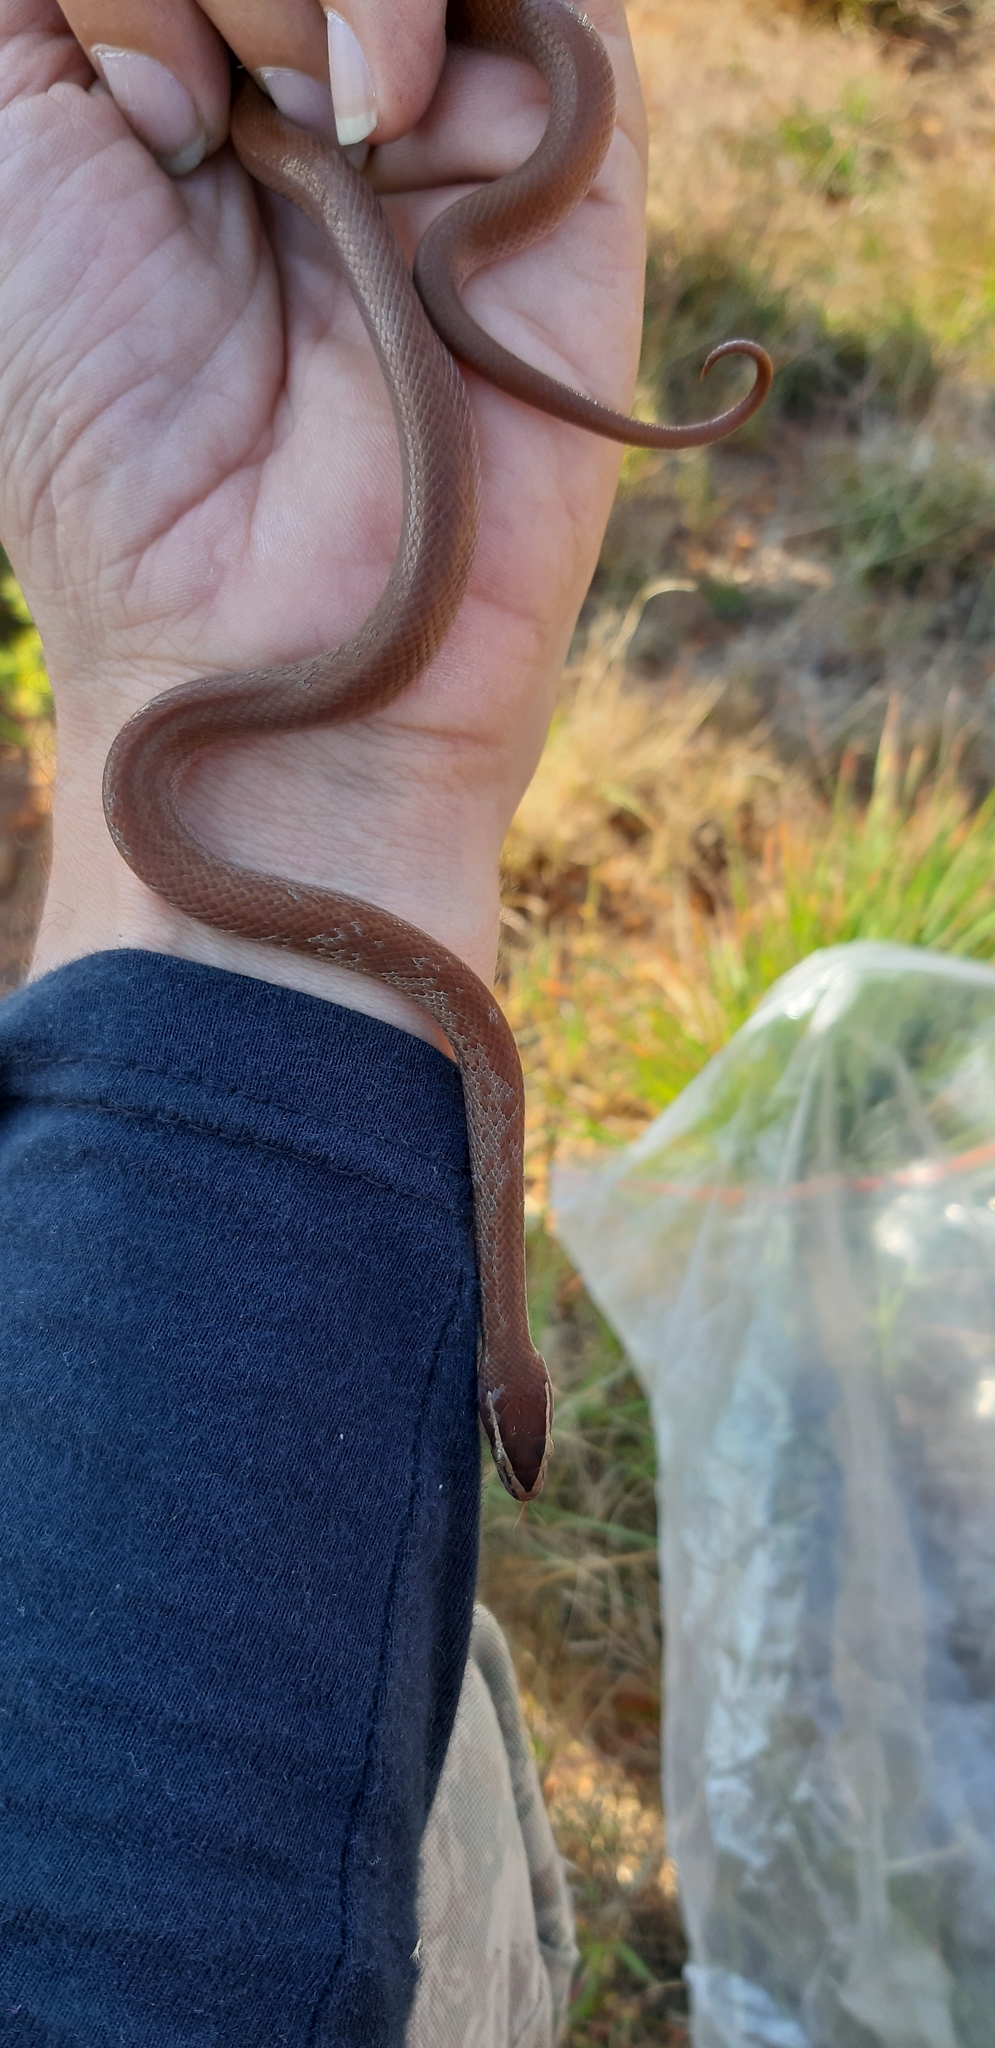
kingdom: Animalia
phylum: Chordata
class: Squamata
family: Lamprophiidae
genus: Boaedon
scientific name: Boaedon capensis
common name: Brown house snake
